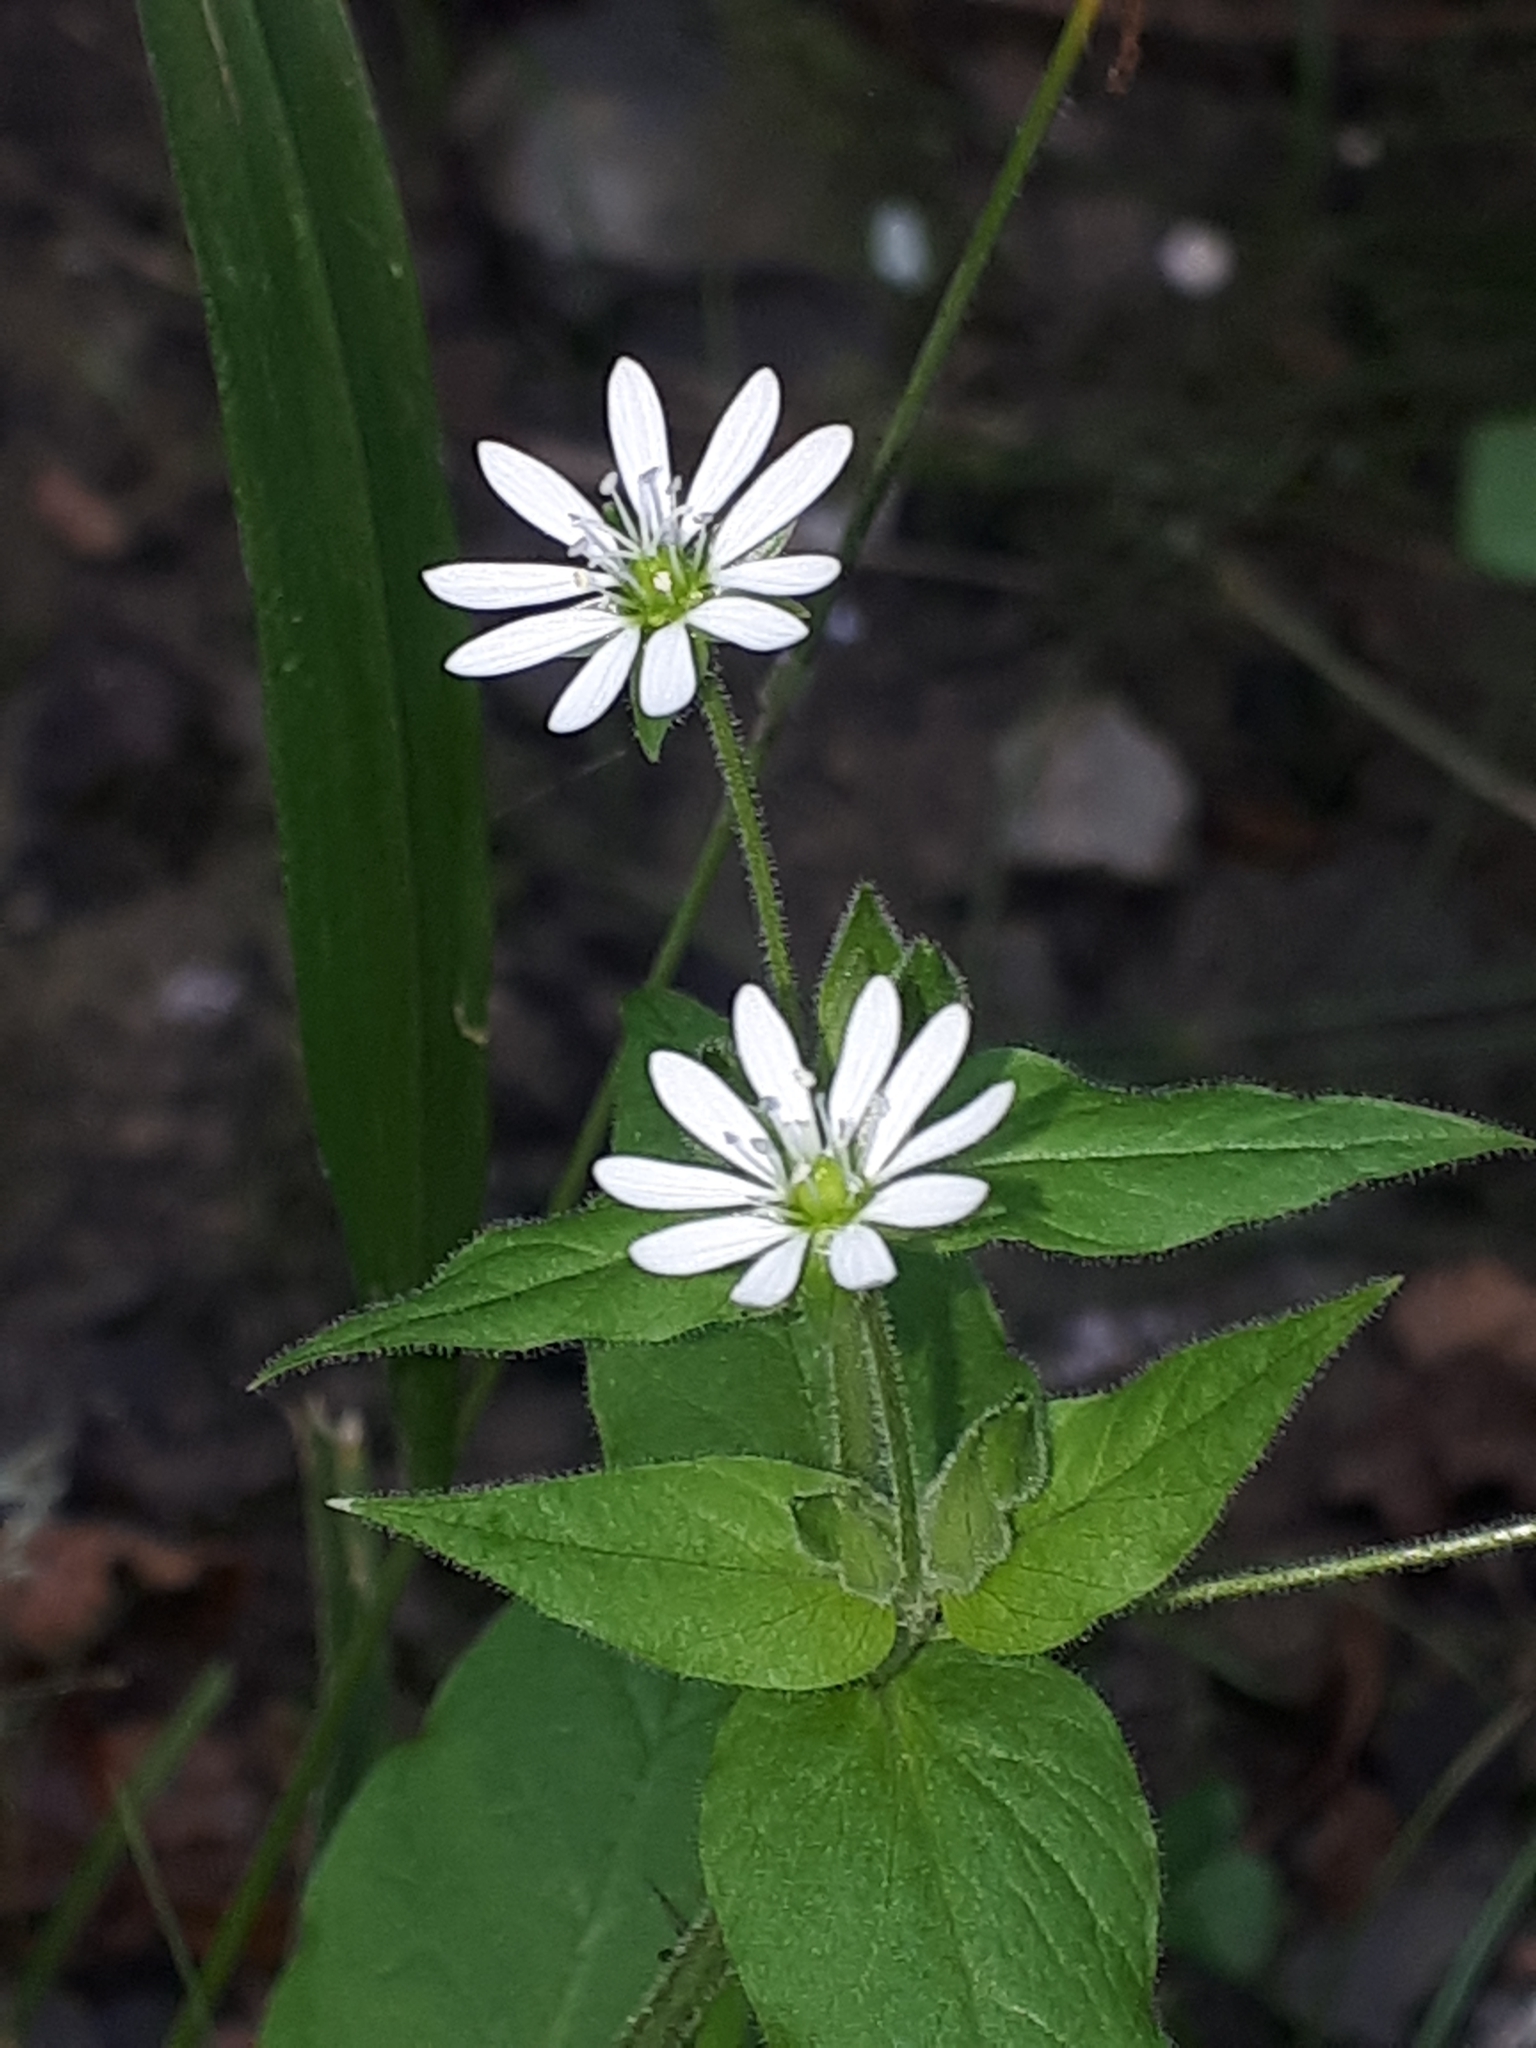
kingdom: Plantae
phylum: Tracheophyta
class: Magnoliopsida
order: Caryophyllales
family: Caryophyllaceae
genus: Stellaria
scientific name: Stellaria aquatica
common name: Water chickweed
